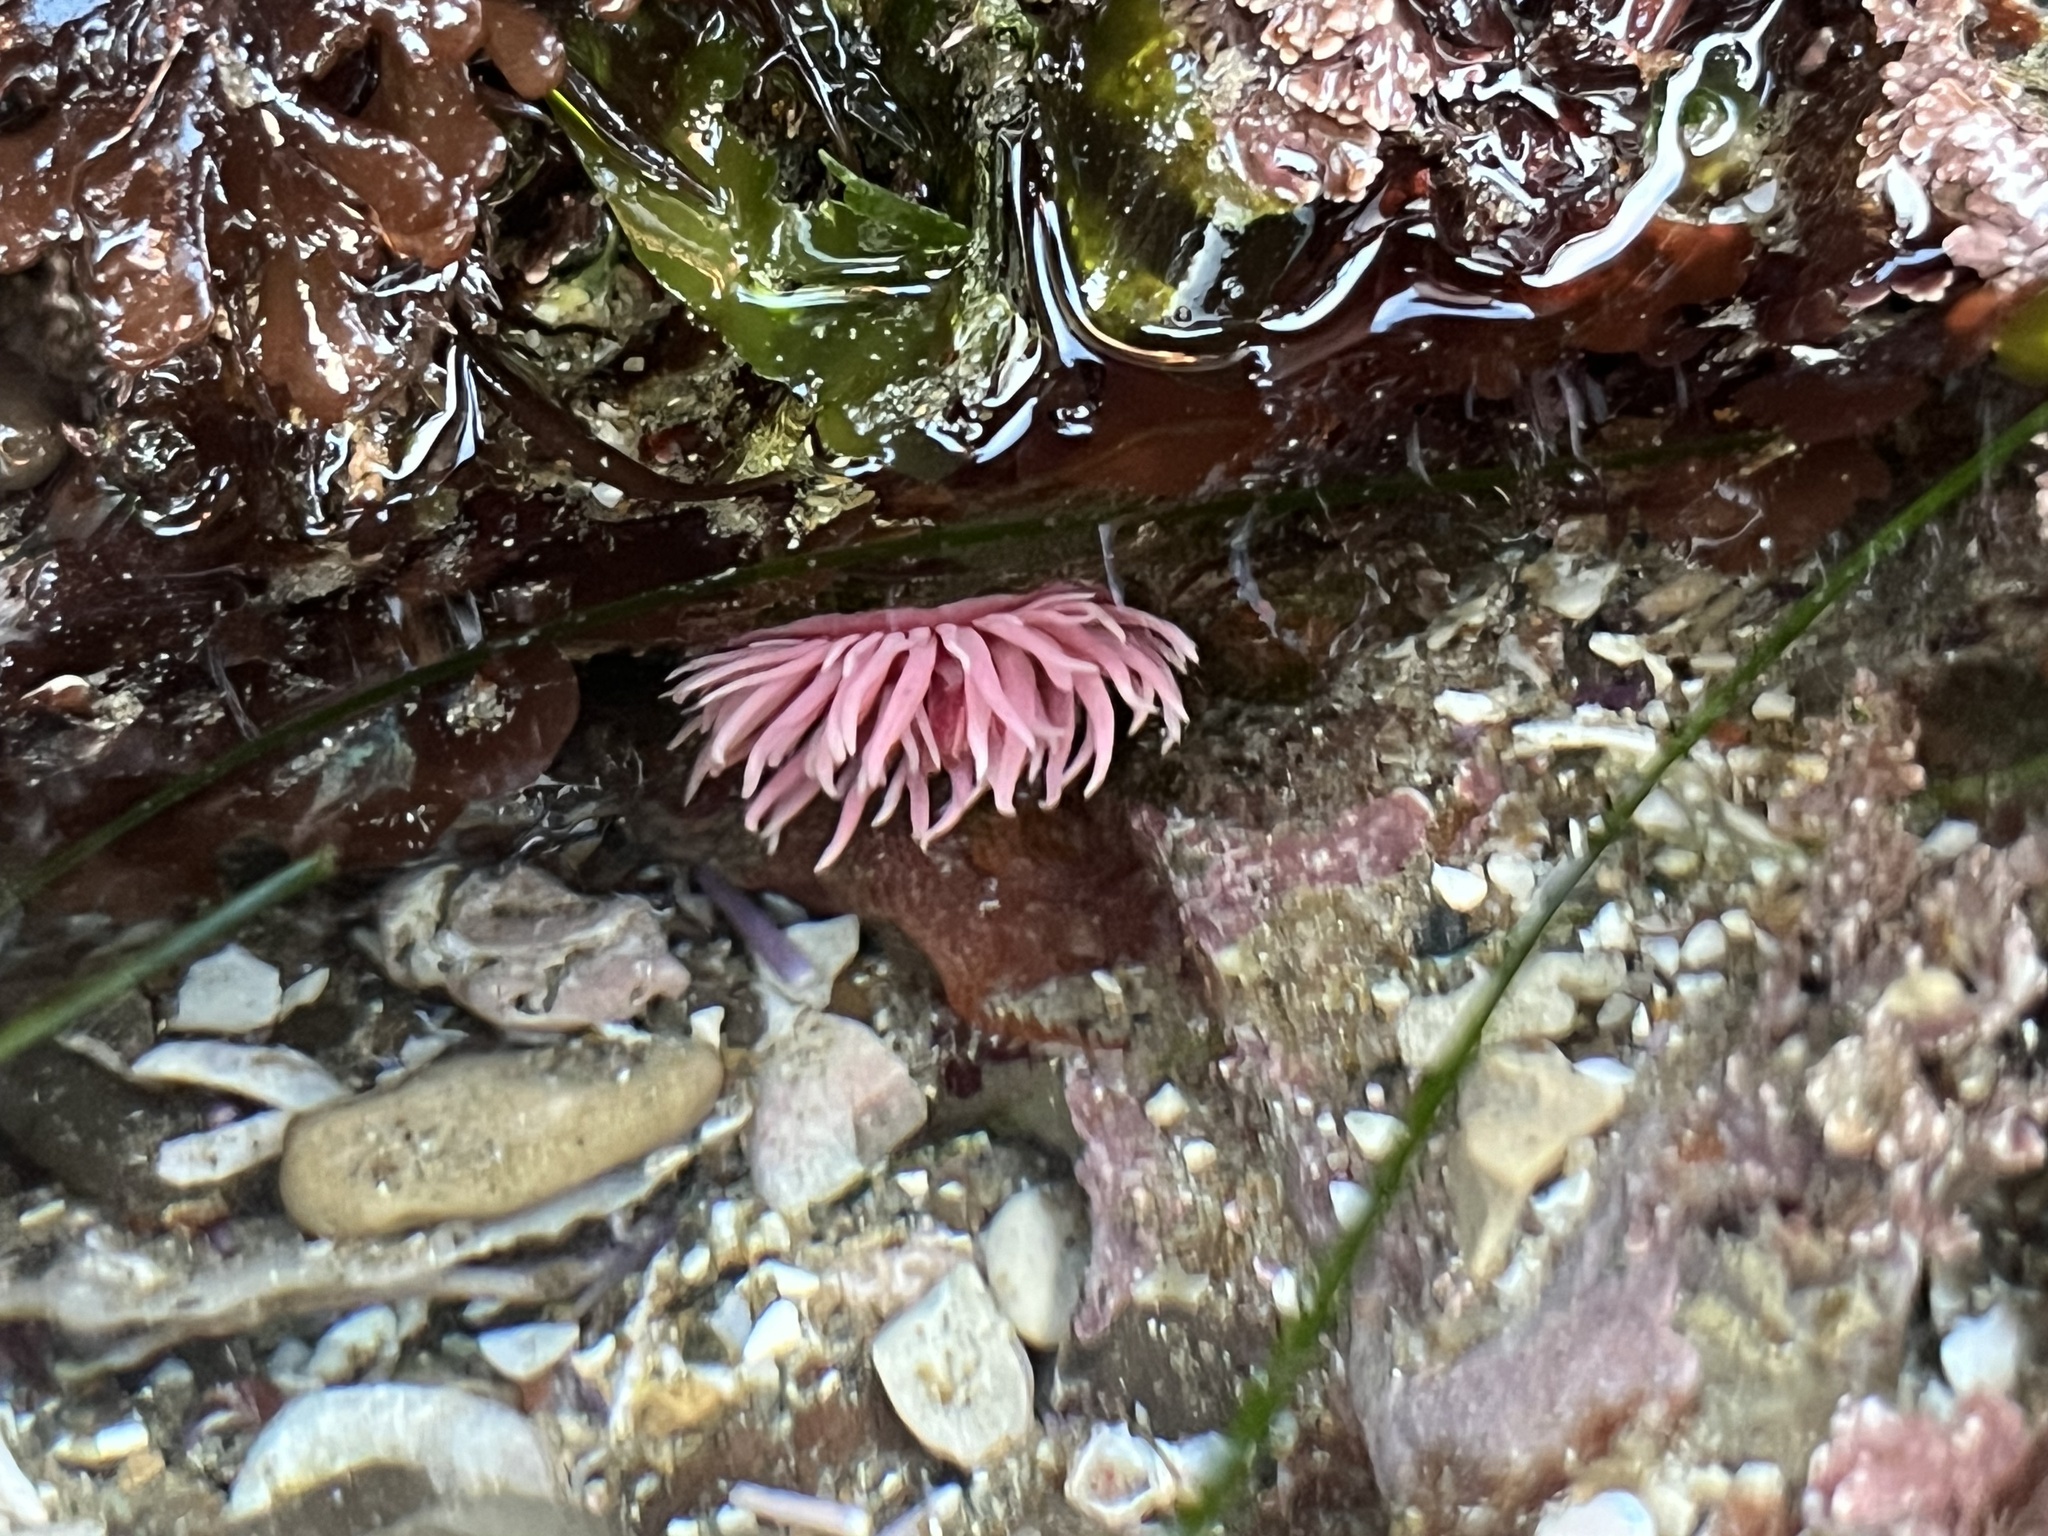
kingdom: Animalia
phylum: Mollusca
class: Gastropoda
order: Nudibranchia
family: Goniodorididae
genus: Okenia
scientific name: Okenia
